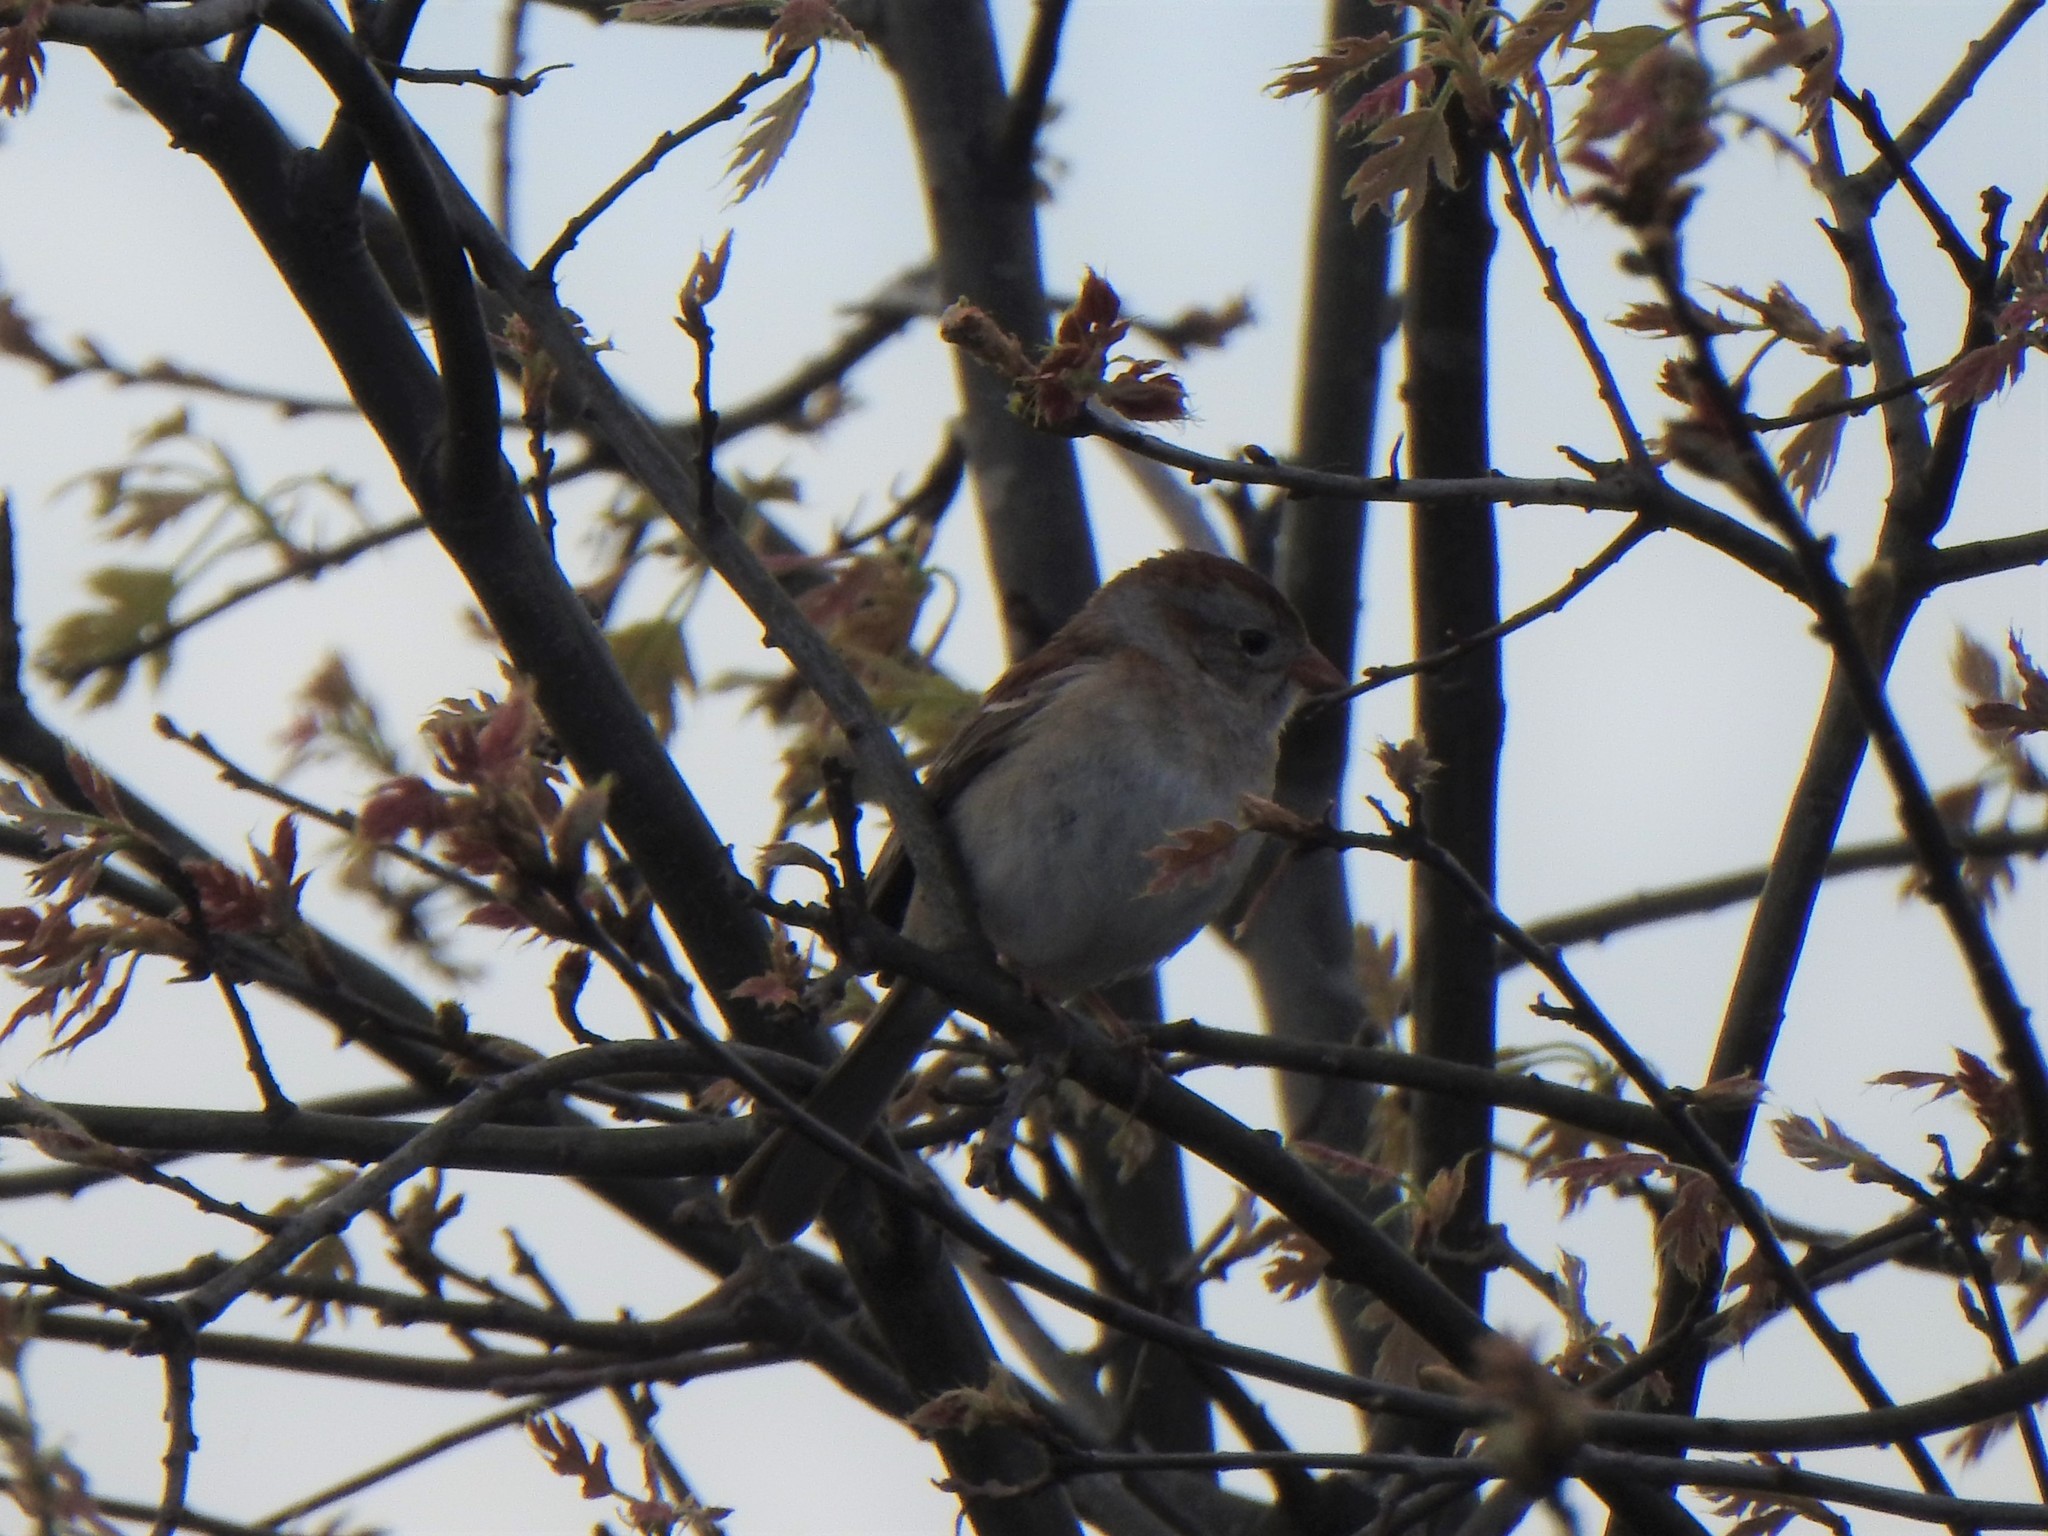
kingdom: Animalia
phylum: Chordata
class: Aves
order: Passeriformes
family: Passerellidae
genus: Spizella
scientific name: Spizella pusilla
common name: Field sparrow
